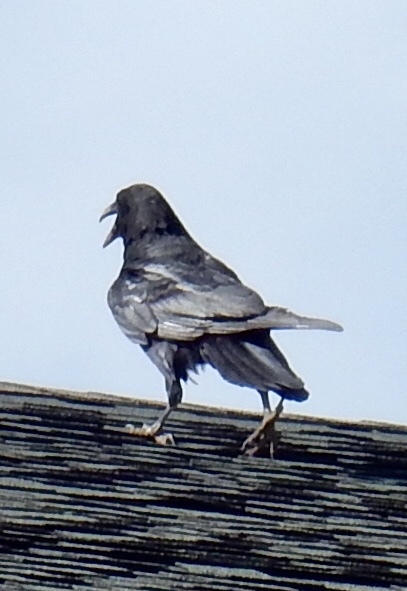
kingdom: Animalia
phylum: Chordata
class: Aves
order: Passeriformes
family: Corvidae
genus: Corvus
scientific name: Corvus corax
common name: Common raven
